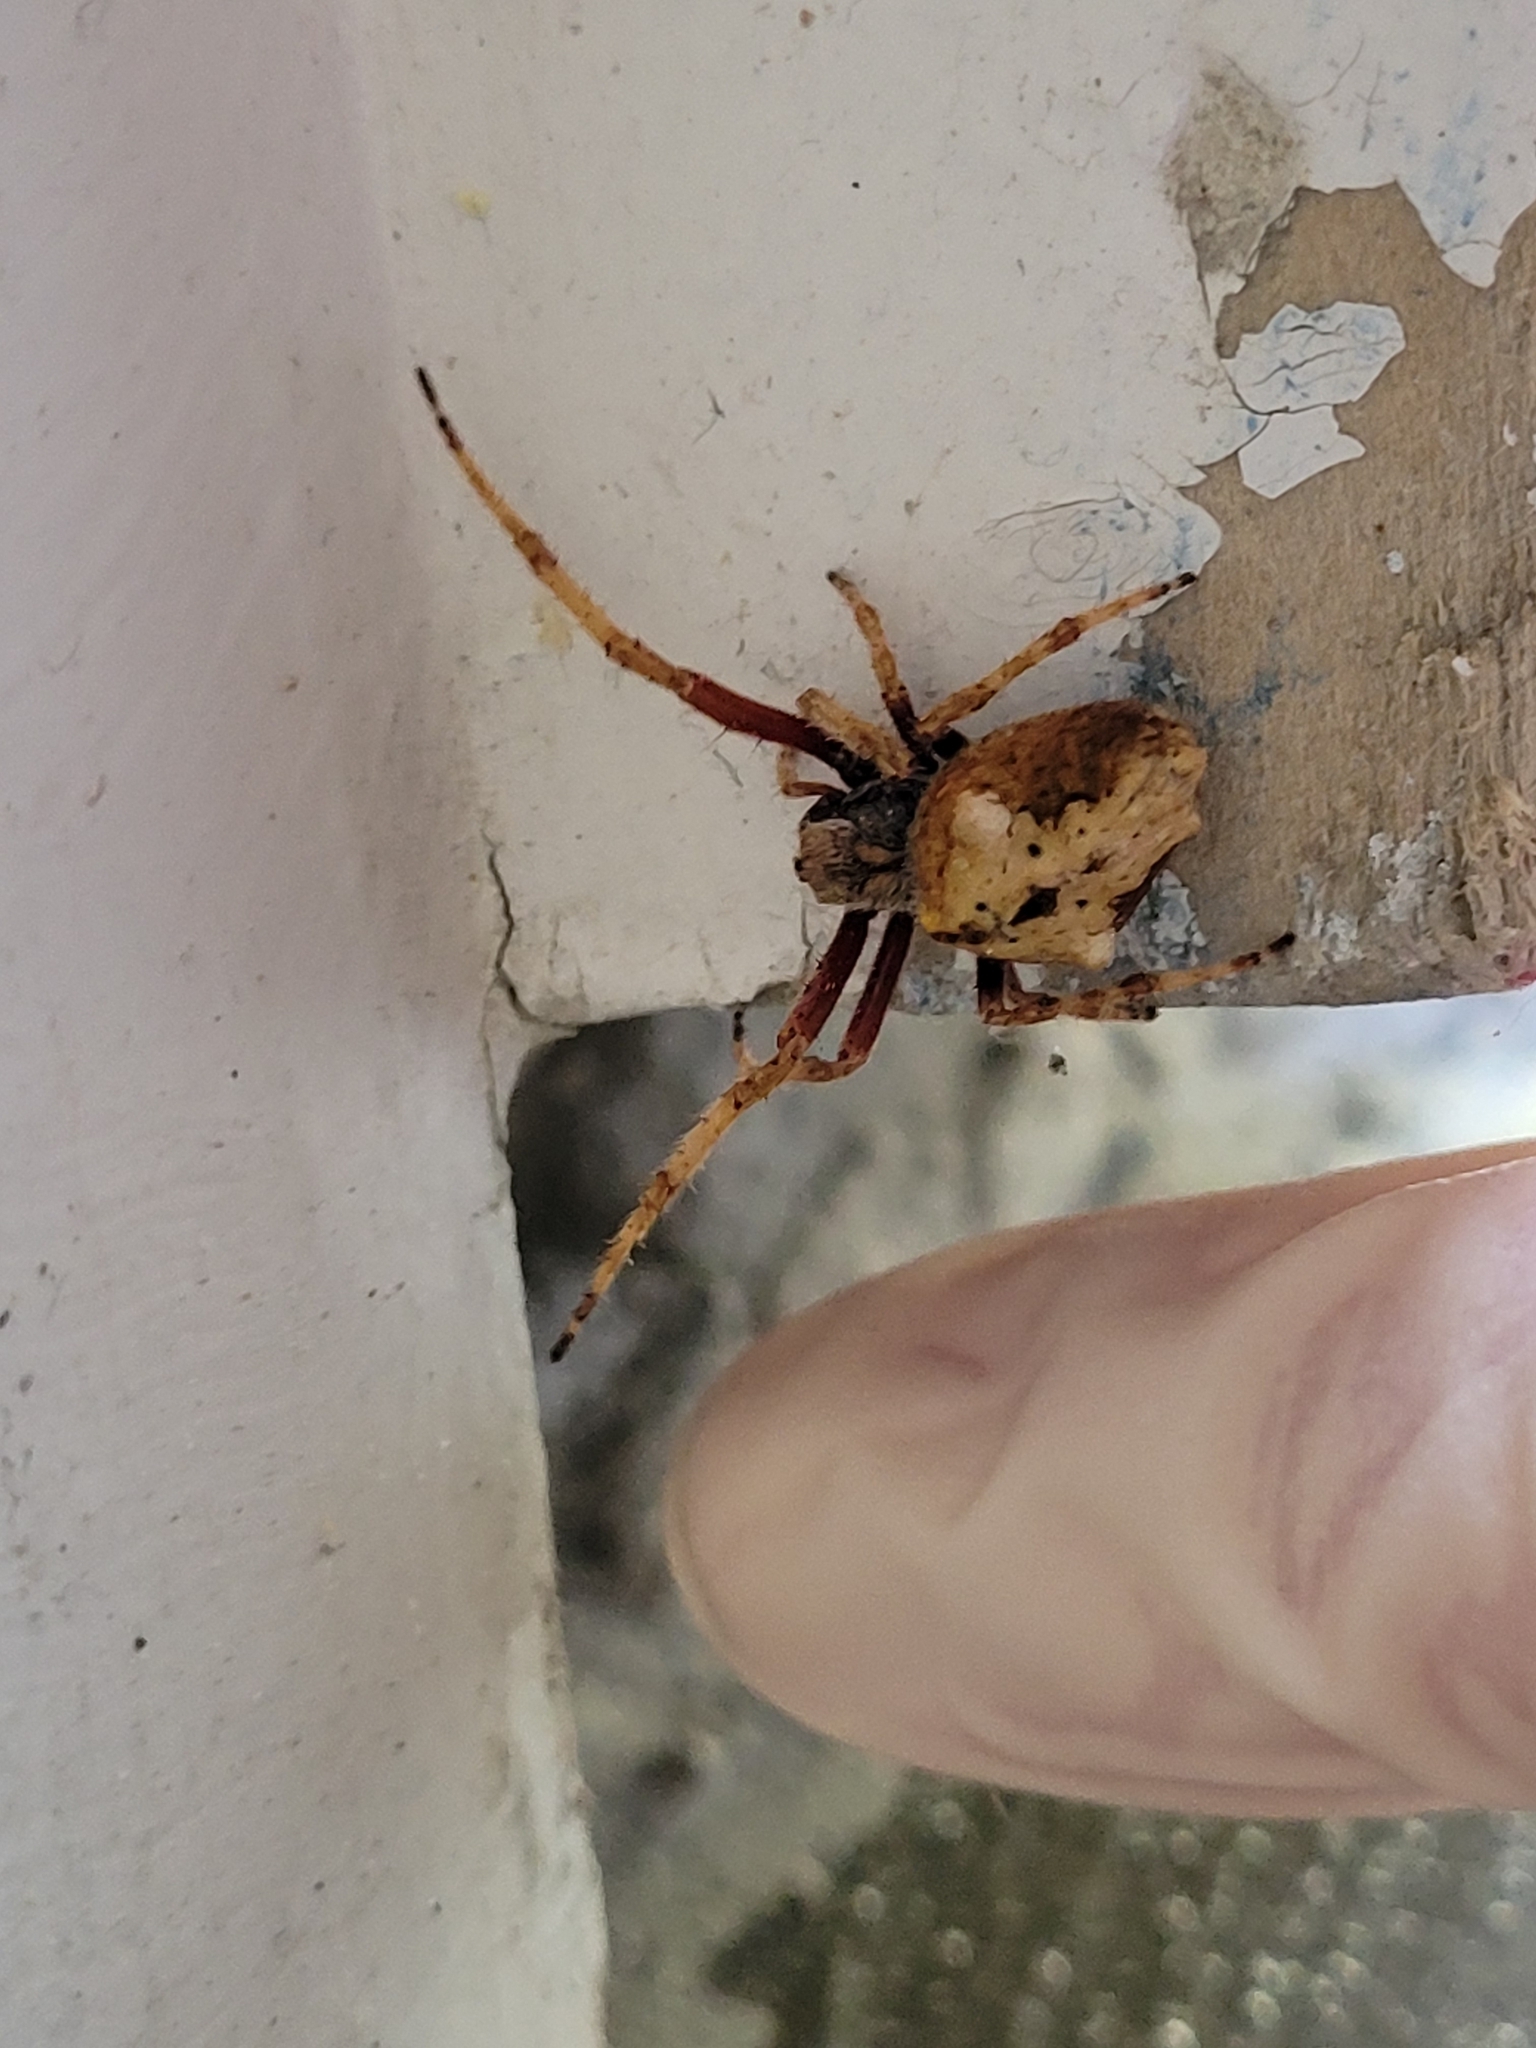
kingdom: Animalia
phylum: Arthropoda
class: Arachnida
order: Araneae
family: Araneidae
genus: Eriophora
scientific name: Eriophora pustulosa
